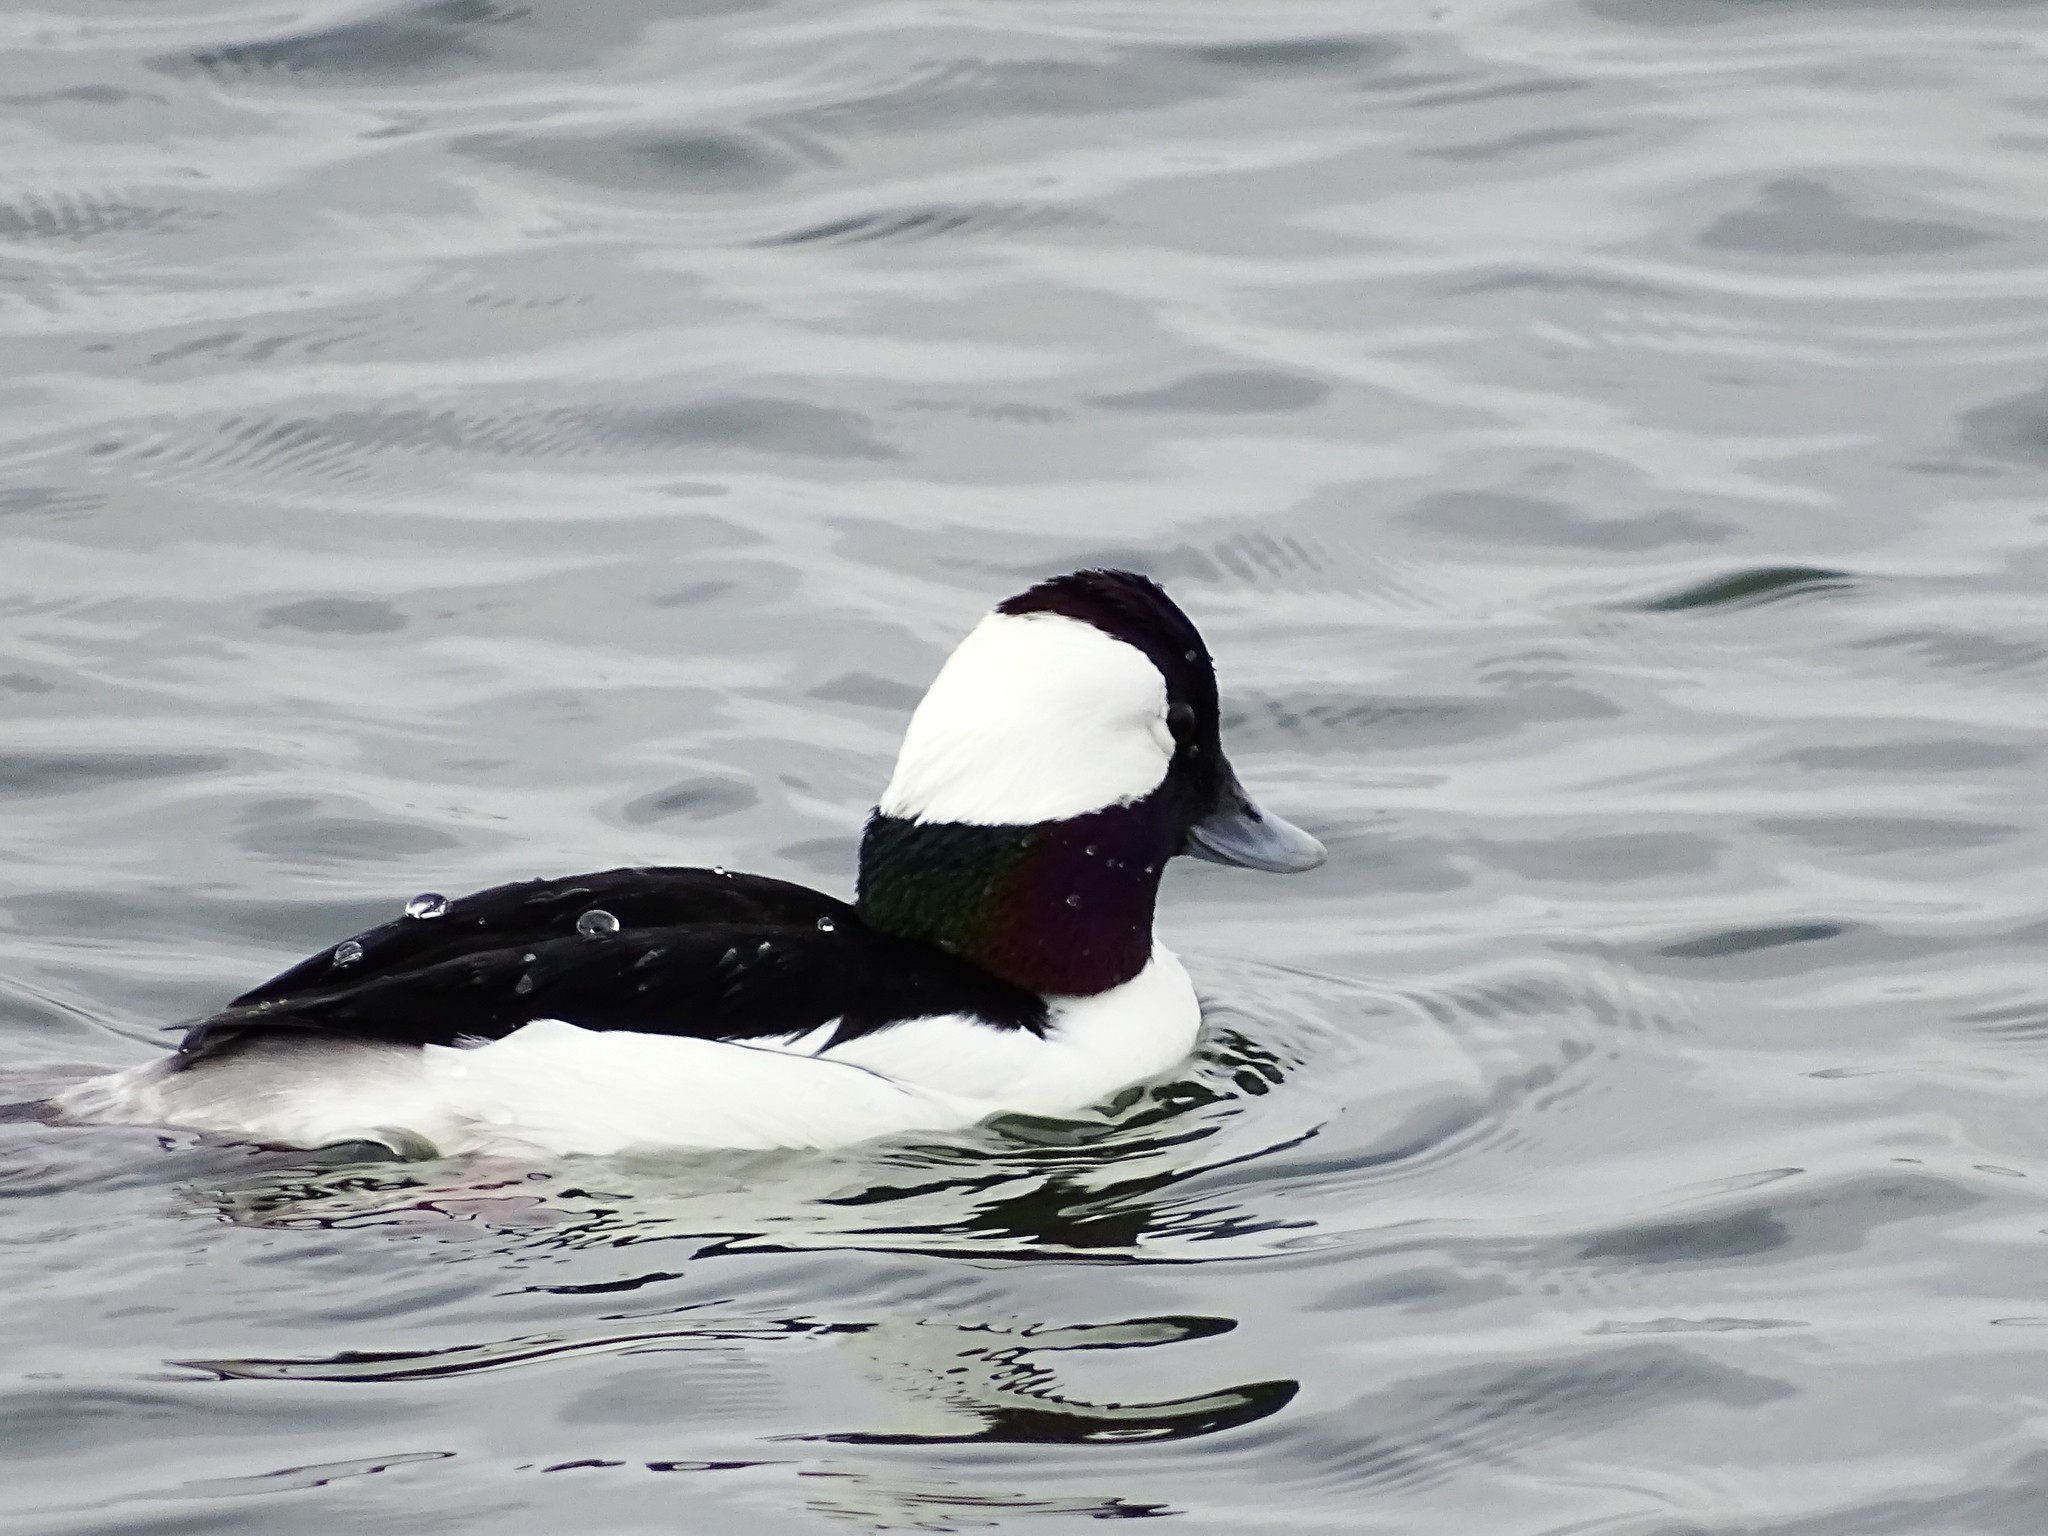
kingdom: Animalia
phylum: Chordata
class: Aves
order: Anseriformes
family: Anatidae
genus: Bucephala
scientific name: Bucephala albeola
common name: Bufflehead
